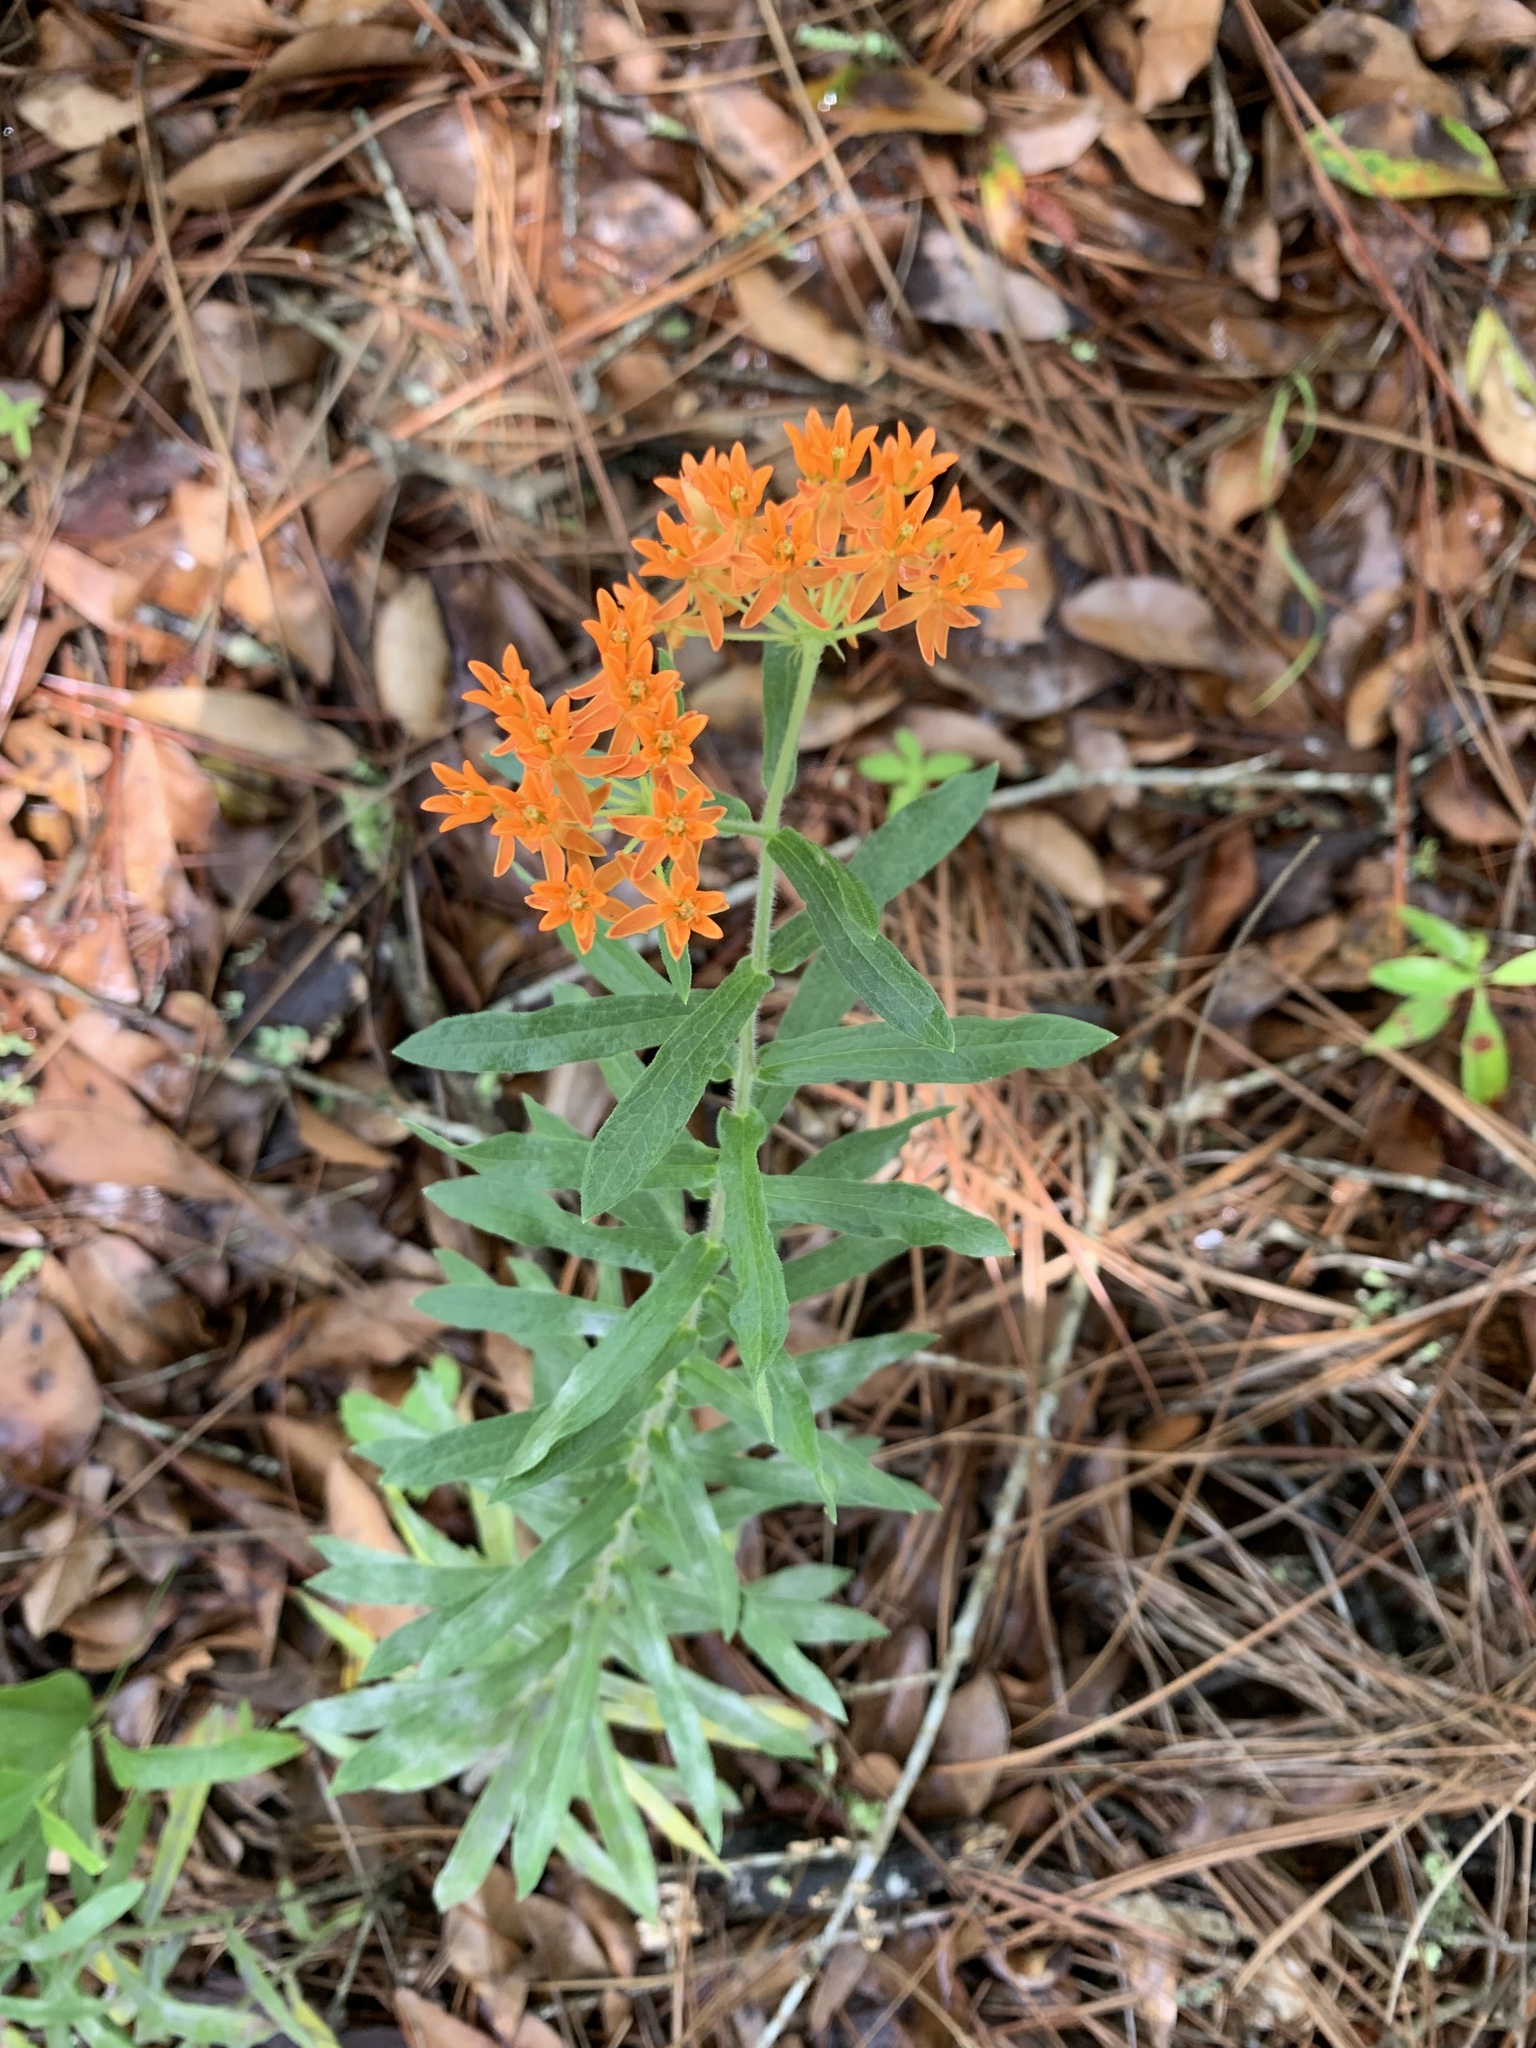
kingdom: Plantae
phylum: Tracheophyta
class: Magnoliopsida
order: Gentianales
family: Apocynaceae
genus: Asclepias
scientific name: Asclepias tuberosa
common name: Butterfly milkweed
